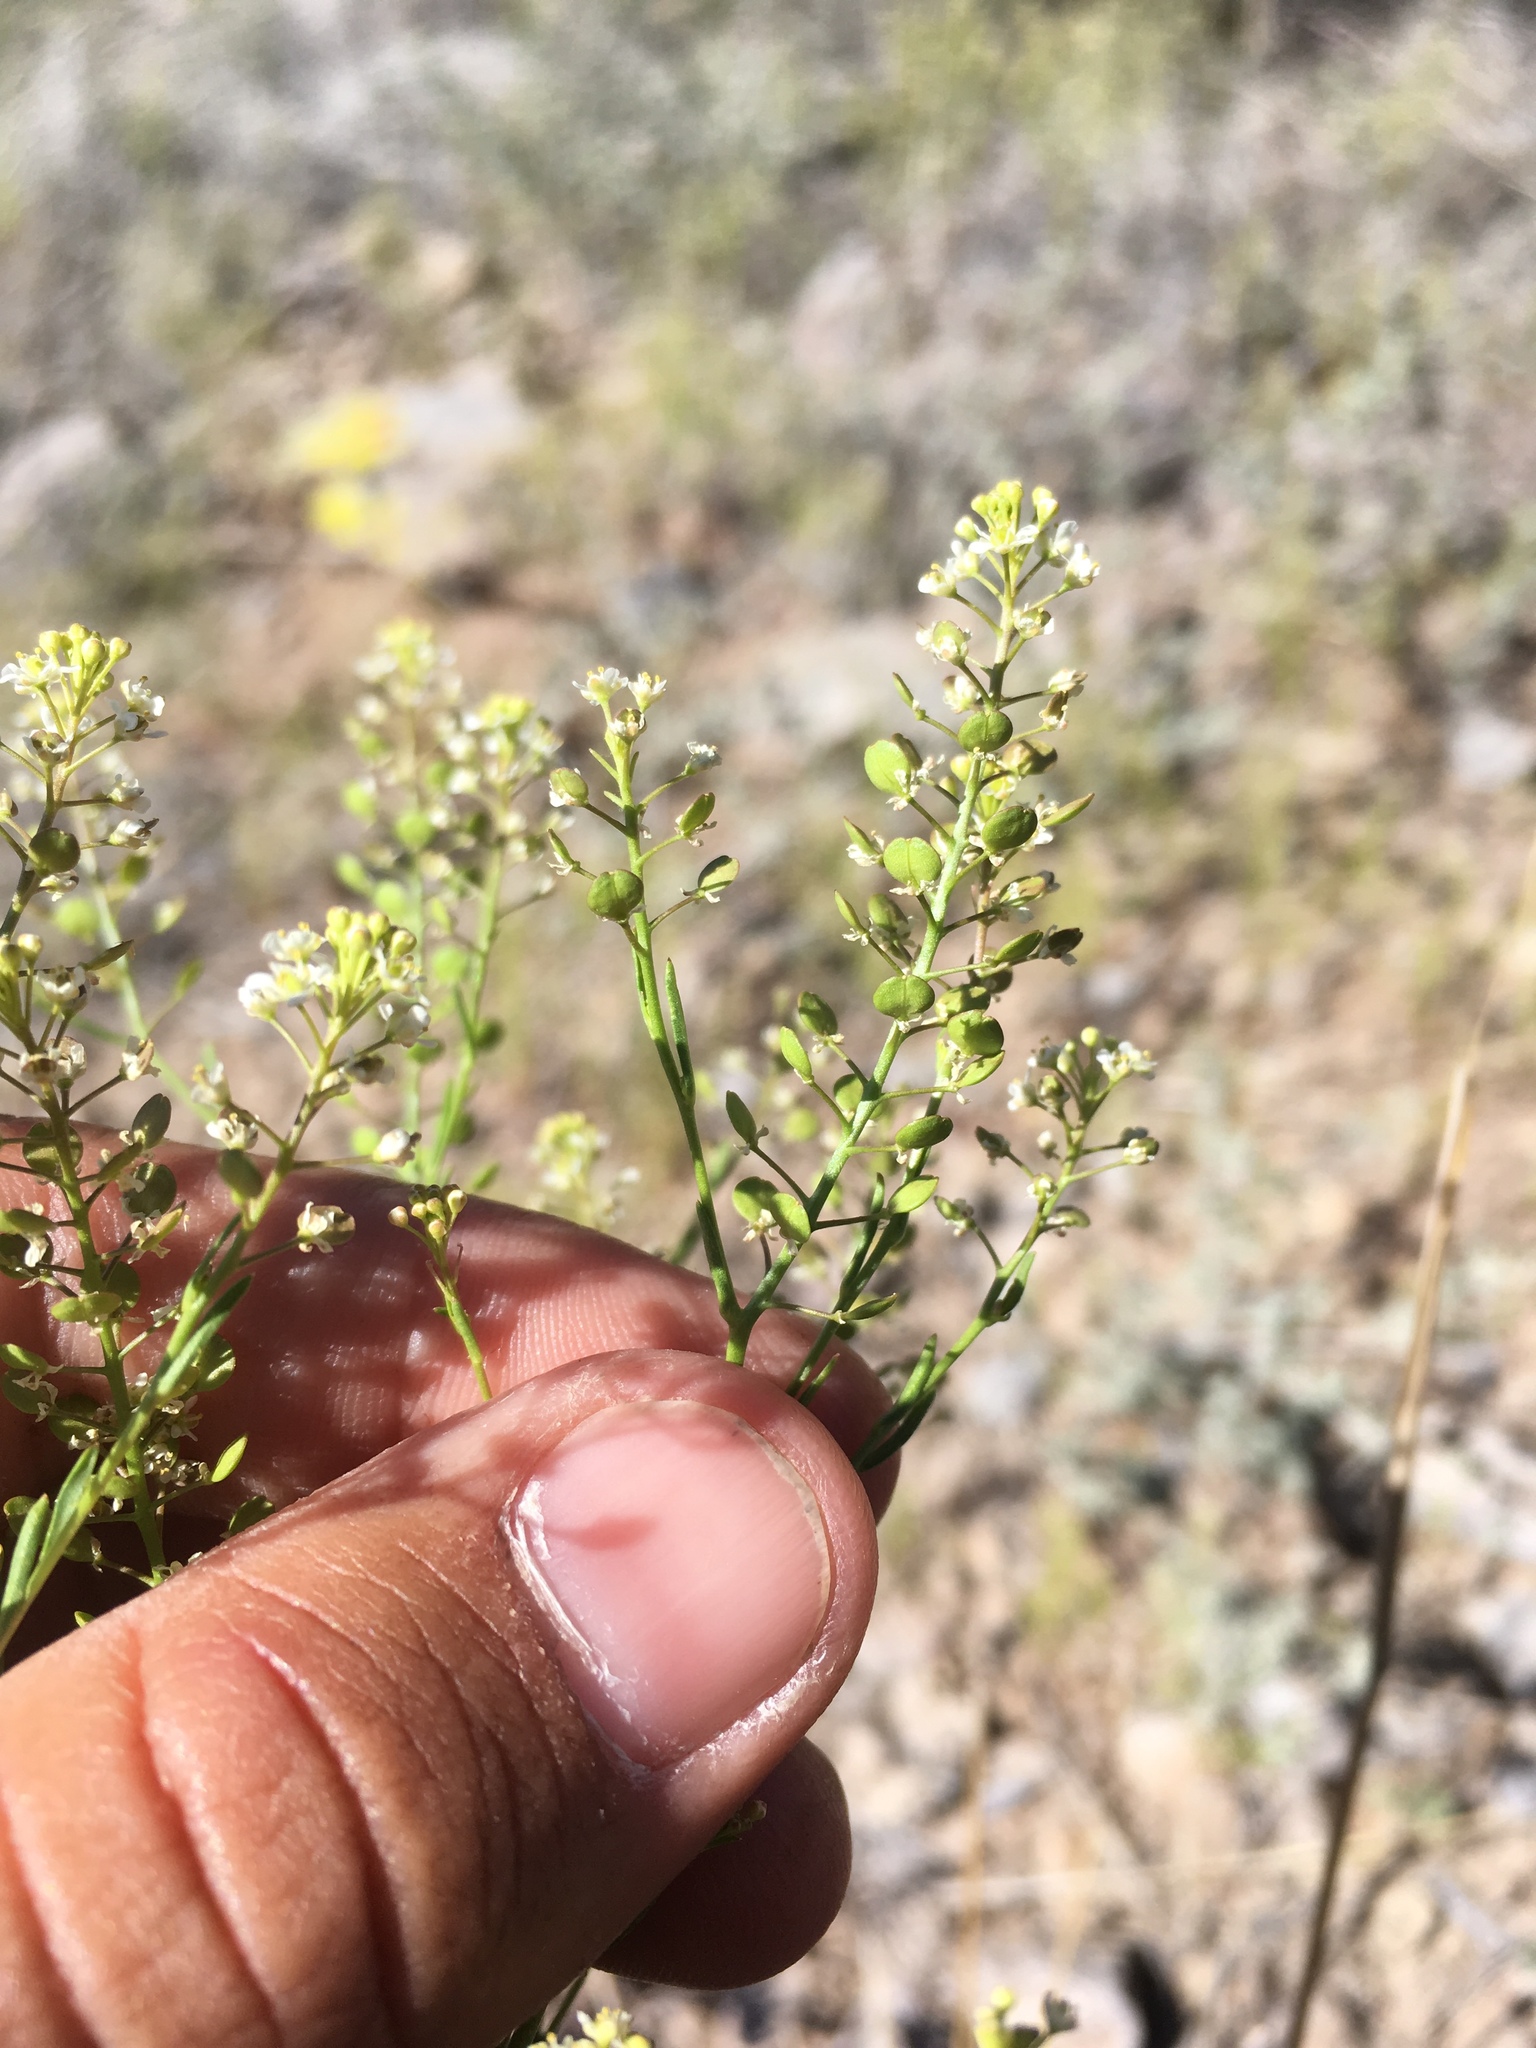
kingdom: Plantae
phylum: Tracheophyta
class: Magnoliopsida
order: Brassicales
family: Brassicaceae
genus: Lepidium
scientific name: Lepidium virginicum
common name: Least pepperwort
